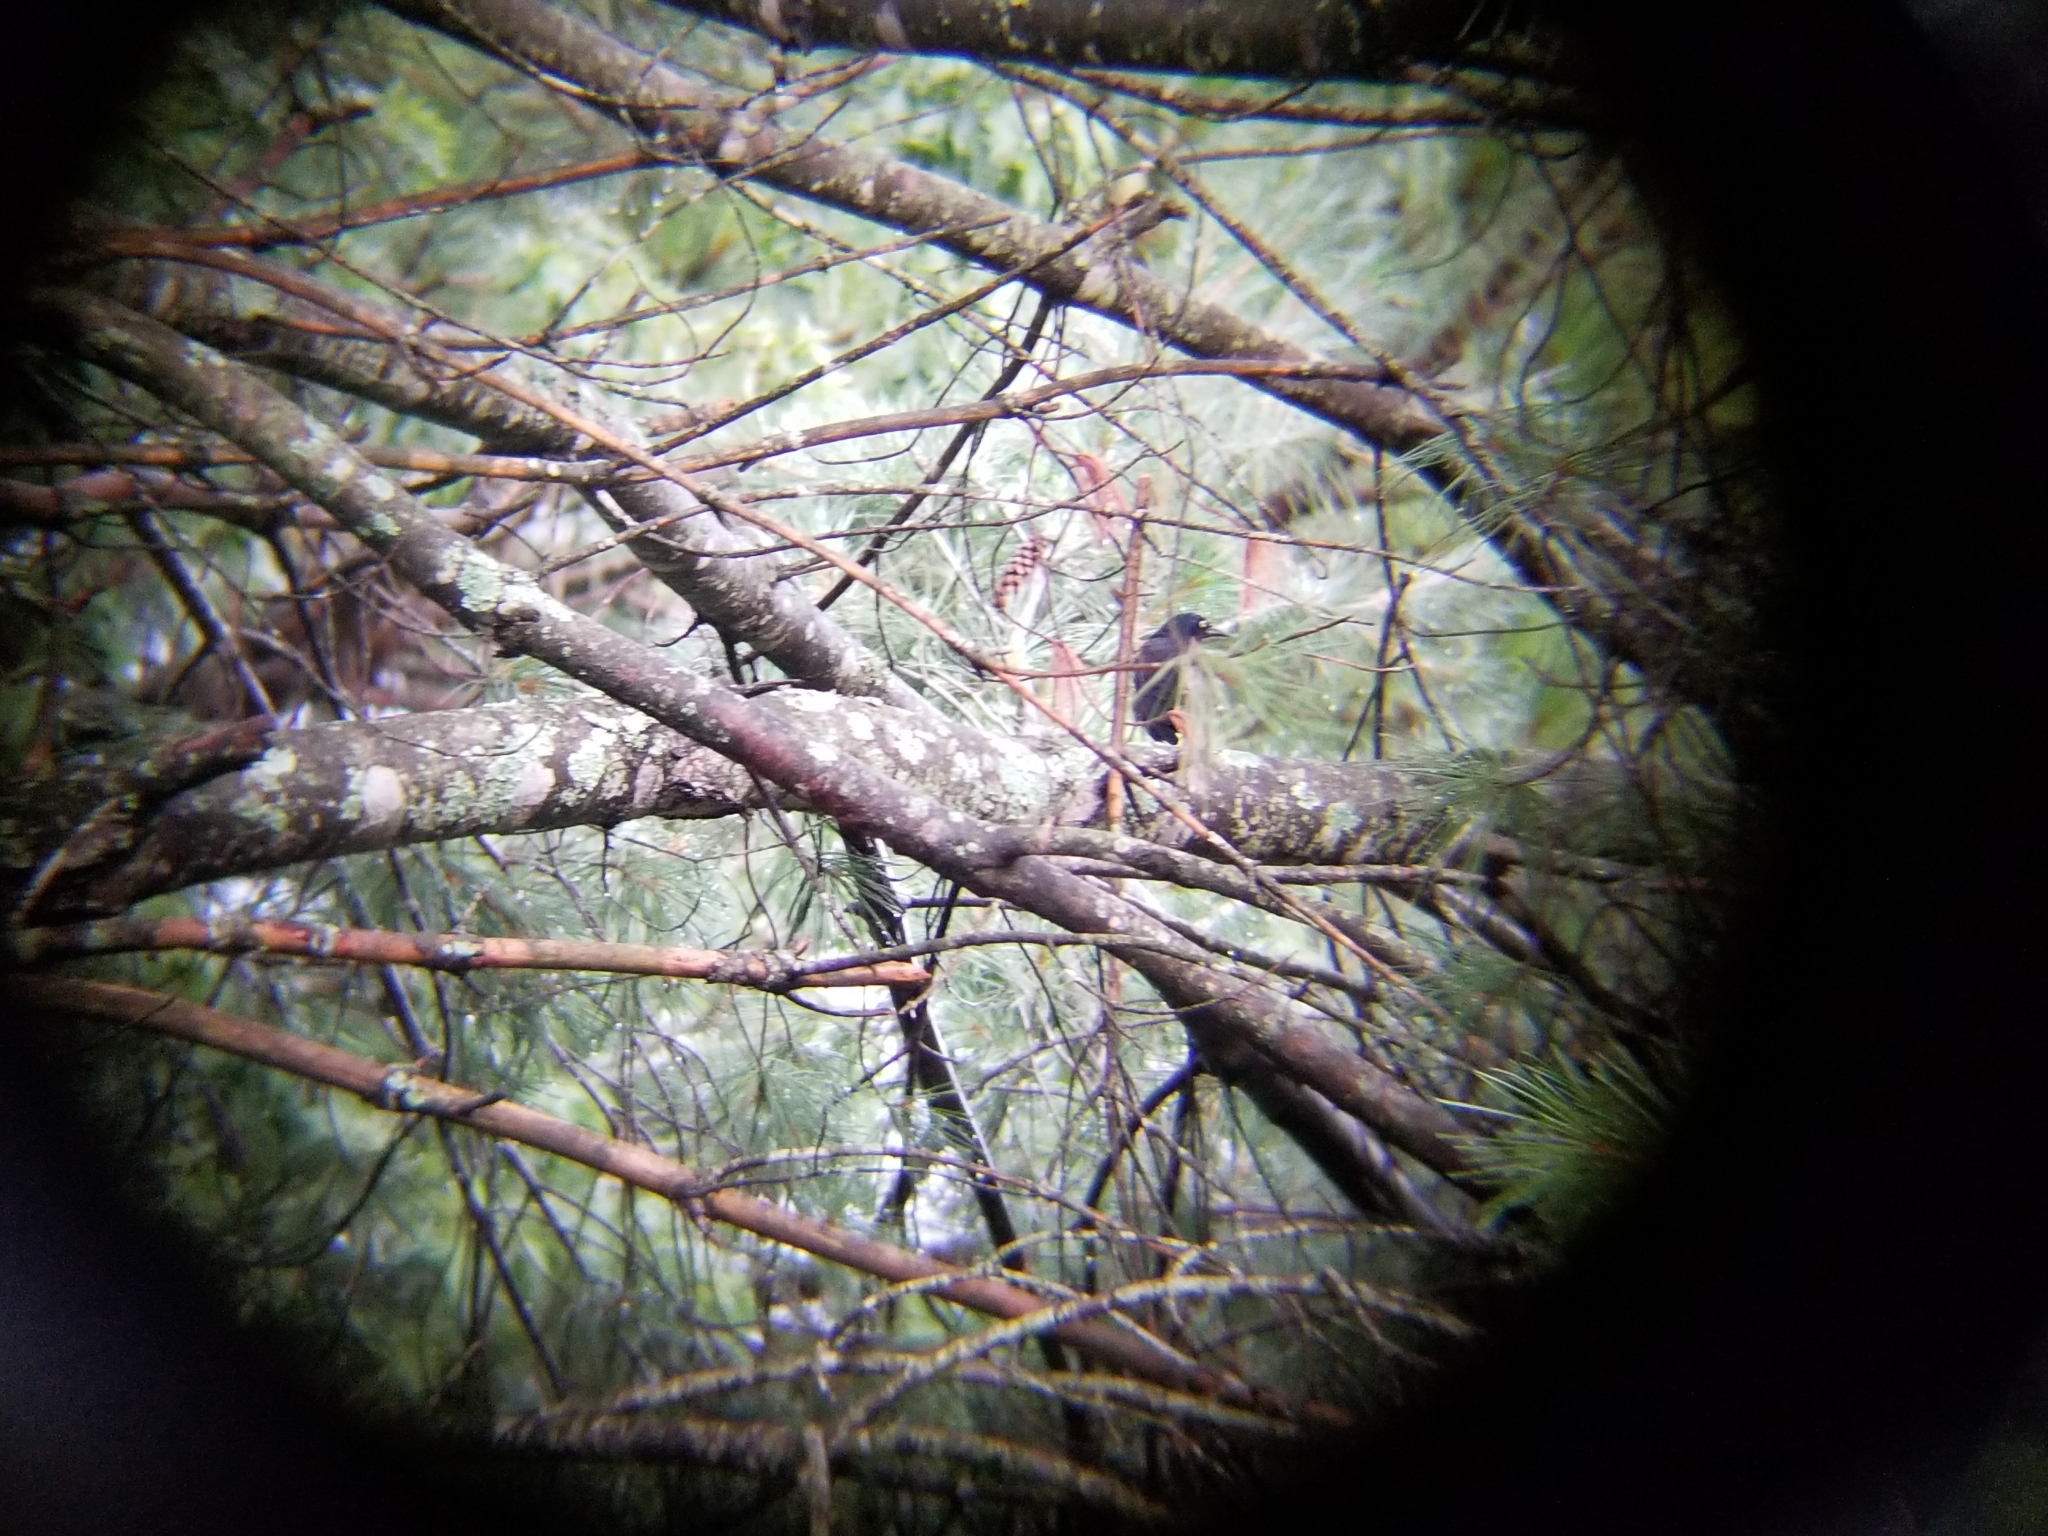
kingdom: Animalia
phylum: Chordata
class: Aves
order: Passeriformes
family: Icteridae
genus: Quiscalus
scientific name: Quiscalus quiscula
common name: Common grackle
